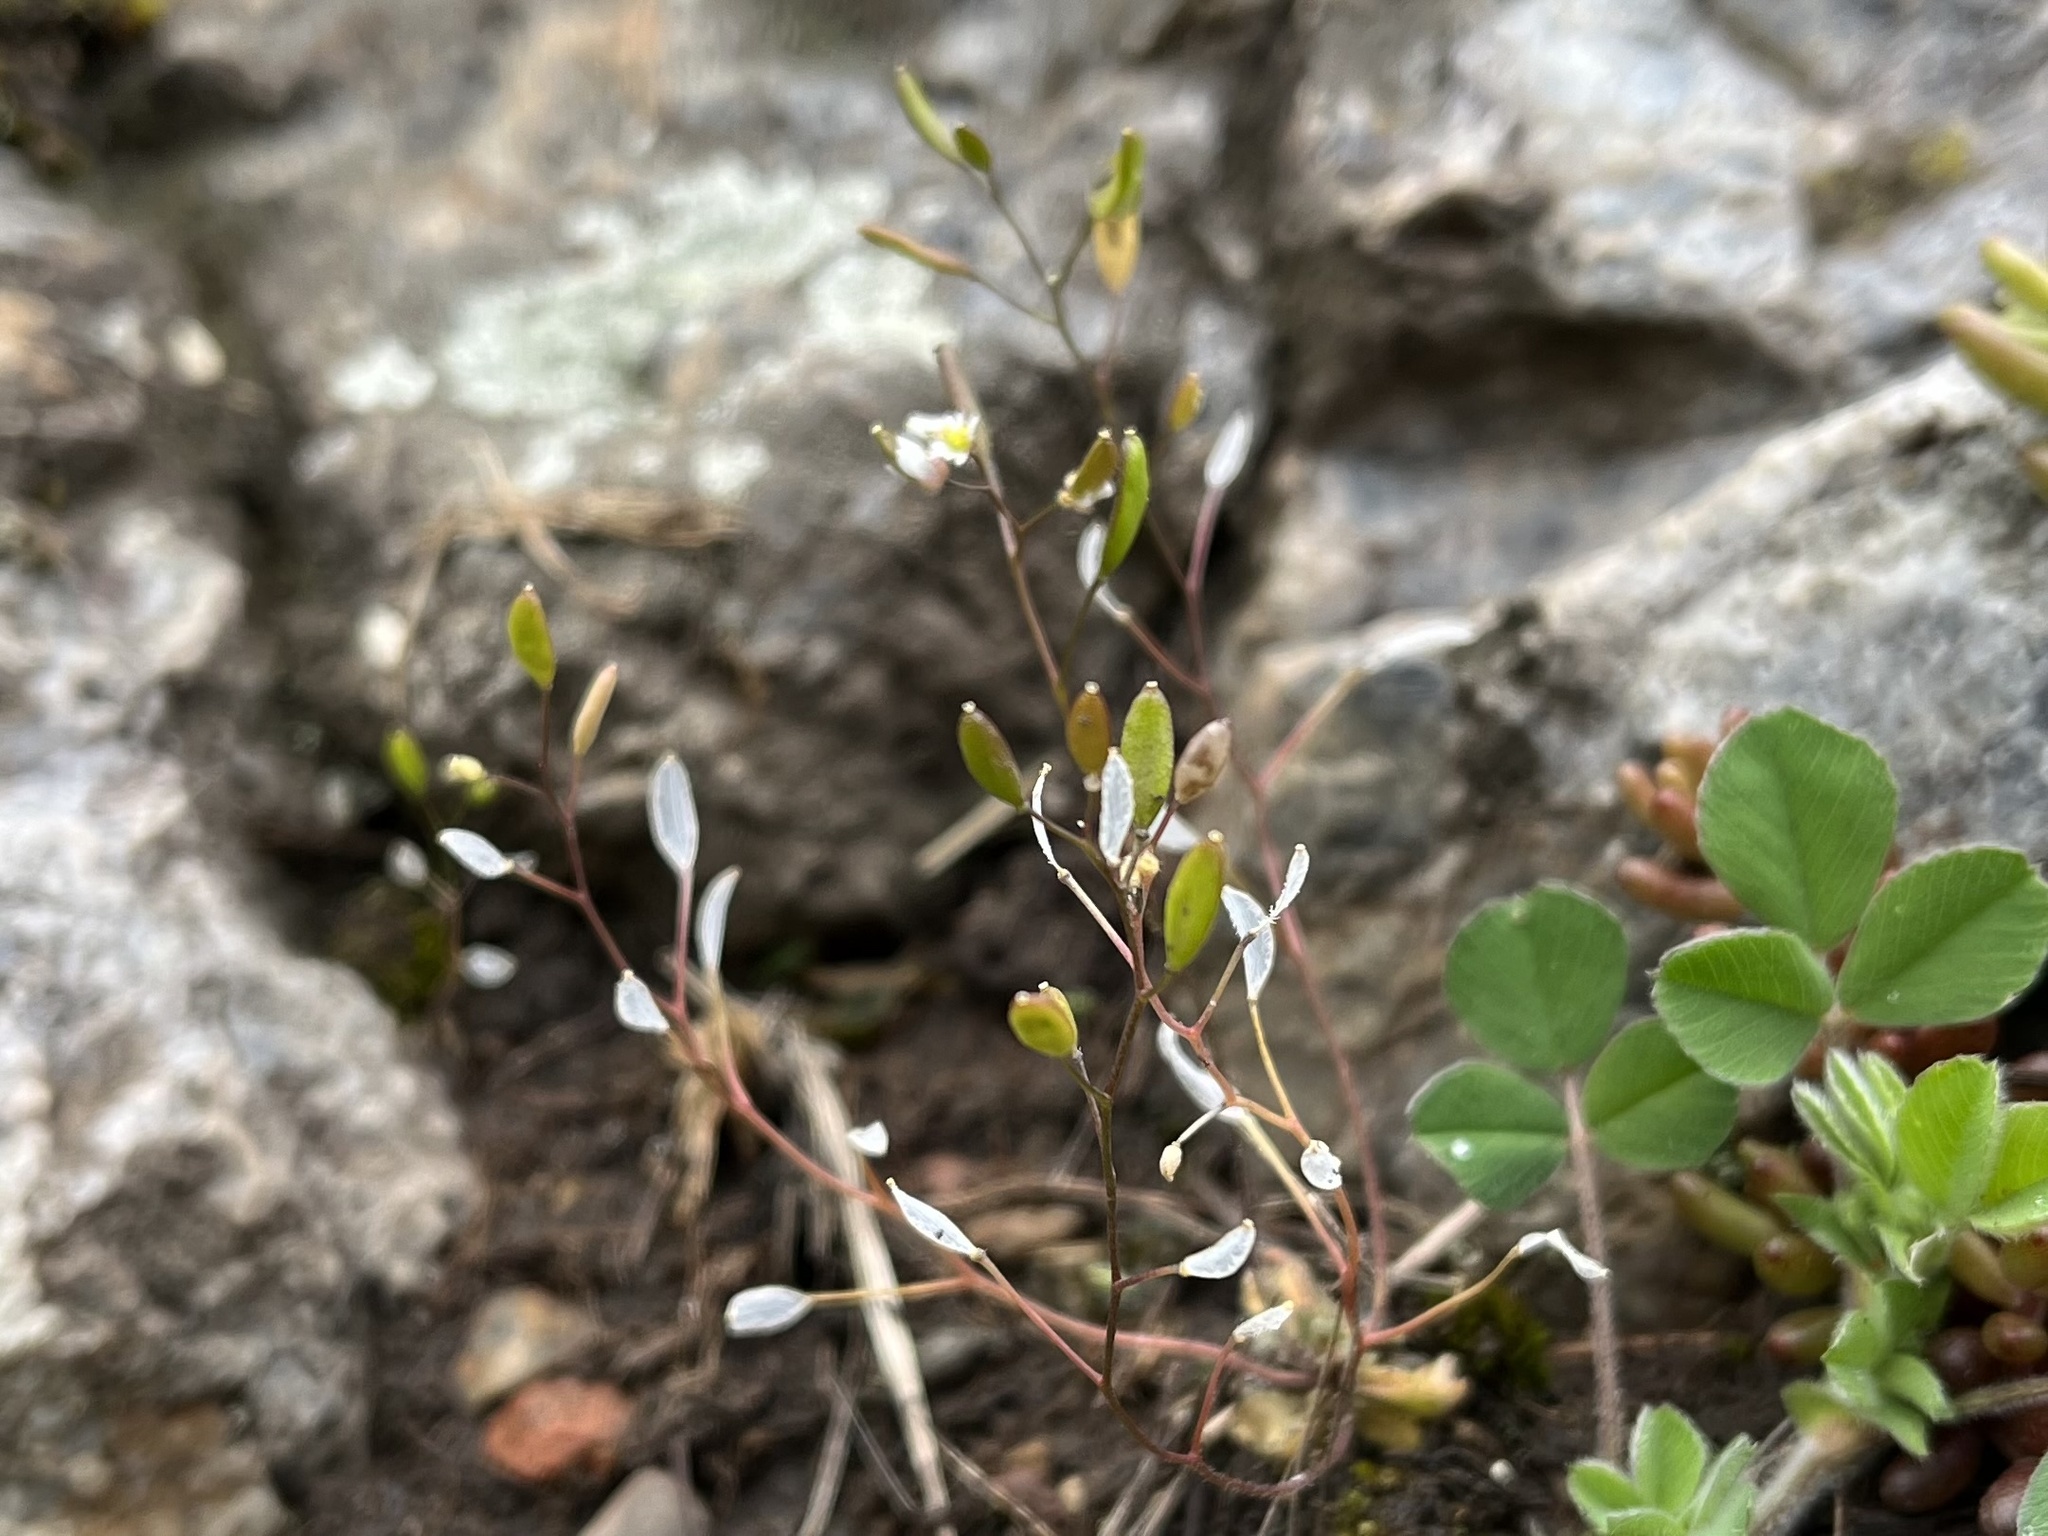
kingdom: Plantae
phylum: Tracheophyta
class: Magnoliopsida
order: Brassicales
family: Brassicaceae
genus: Draba
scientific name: Draba verna
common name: Spring draba
